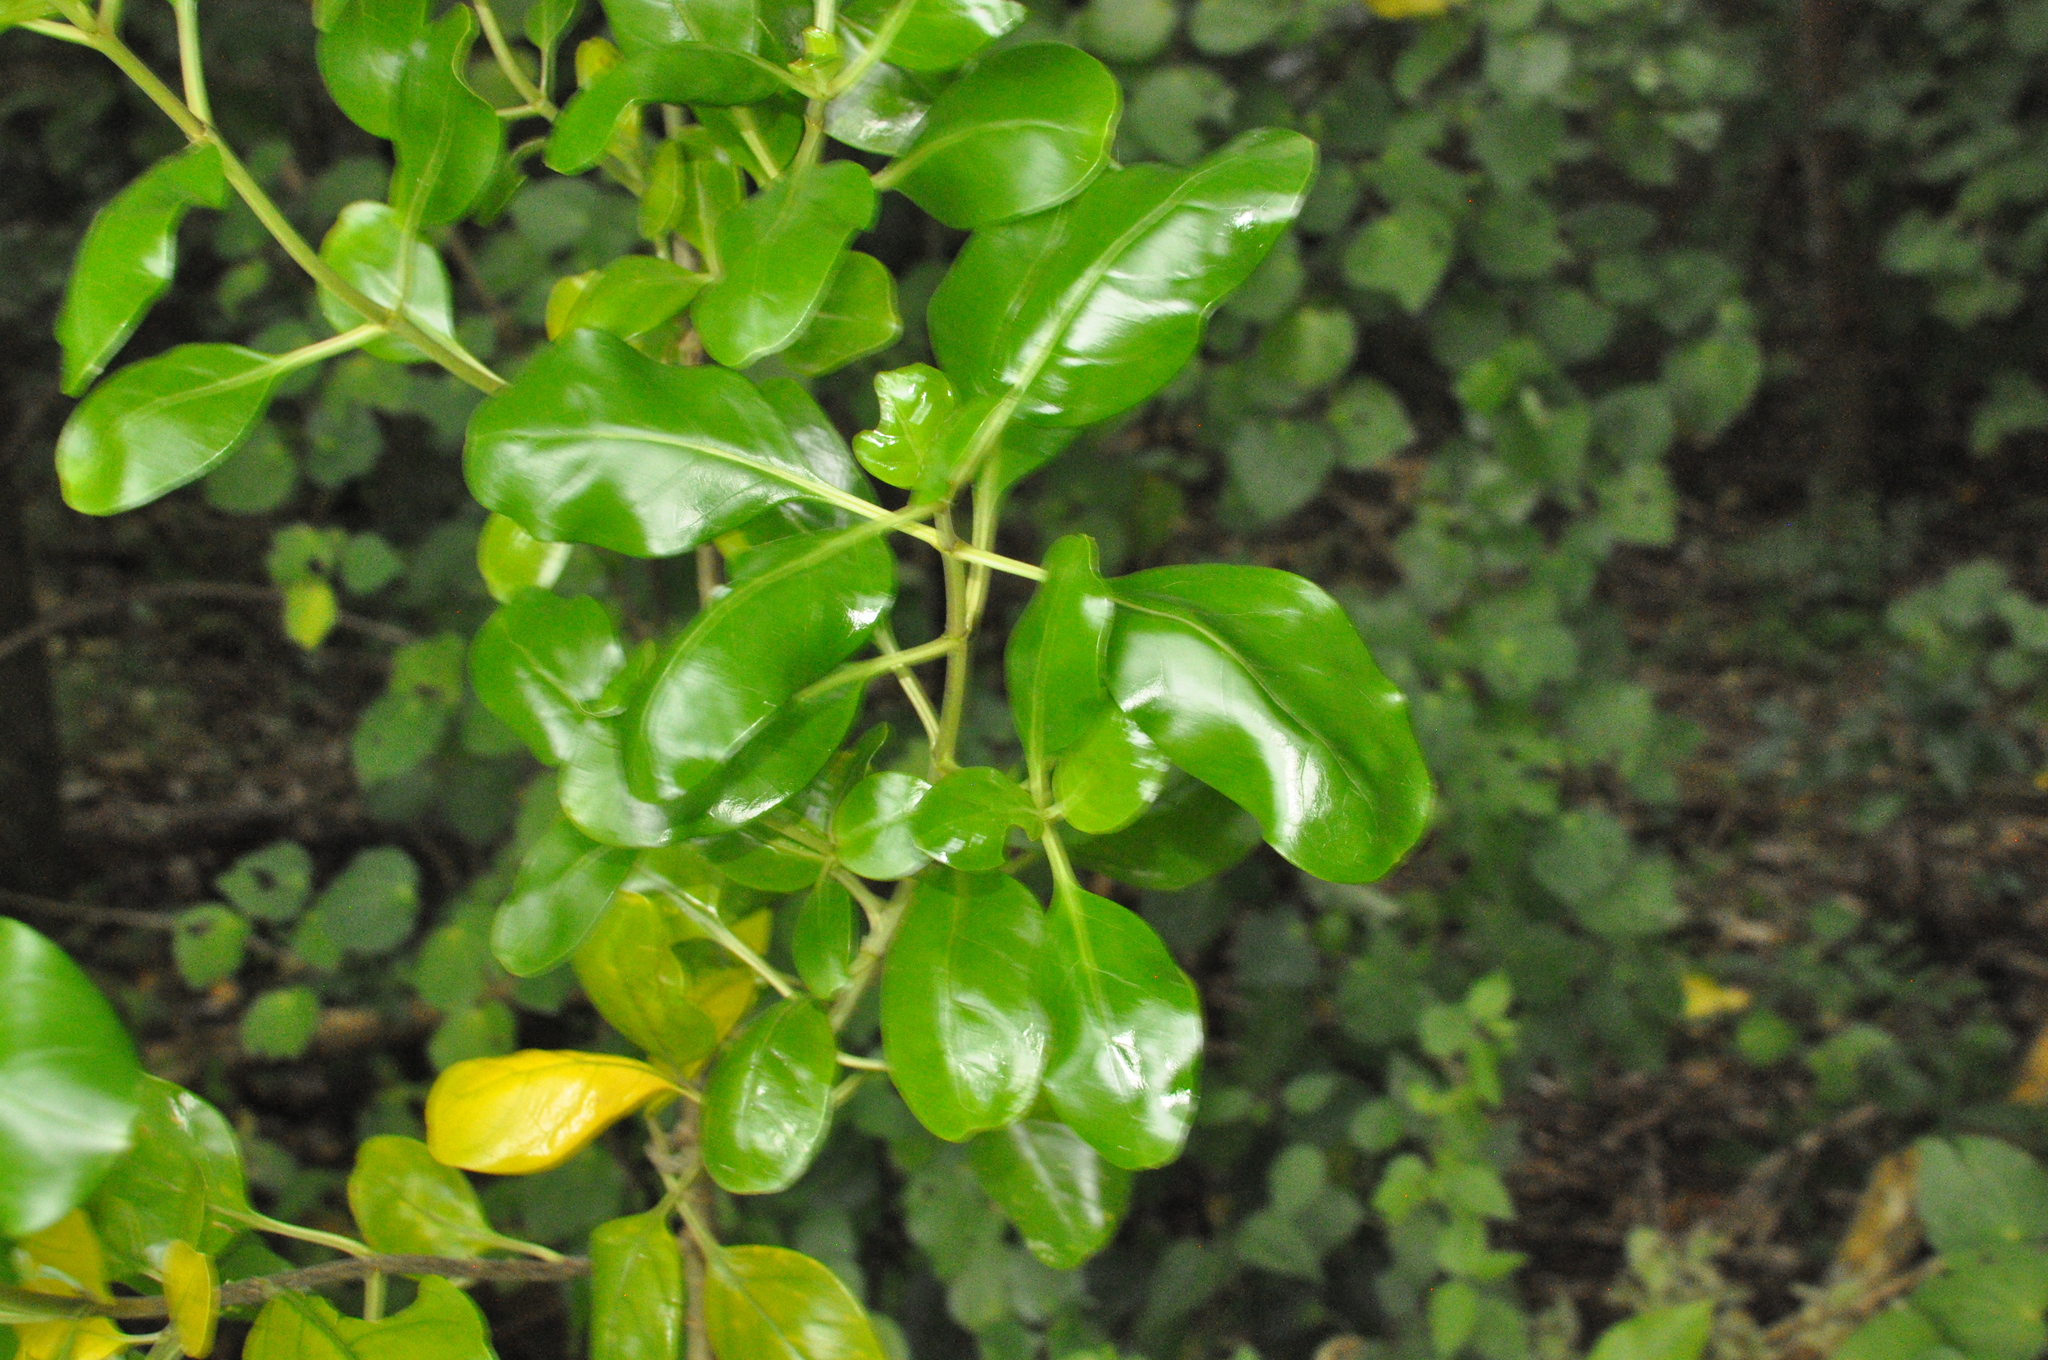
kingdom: Plantae
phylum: Tracheophyta
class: Magnoliopsida
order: Gentianales
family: Rubiaceae
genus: Coprosma
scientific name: Coprosma repens
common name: Tree bedstraw
